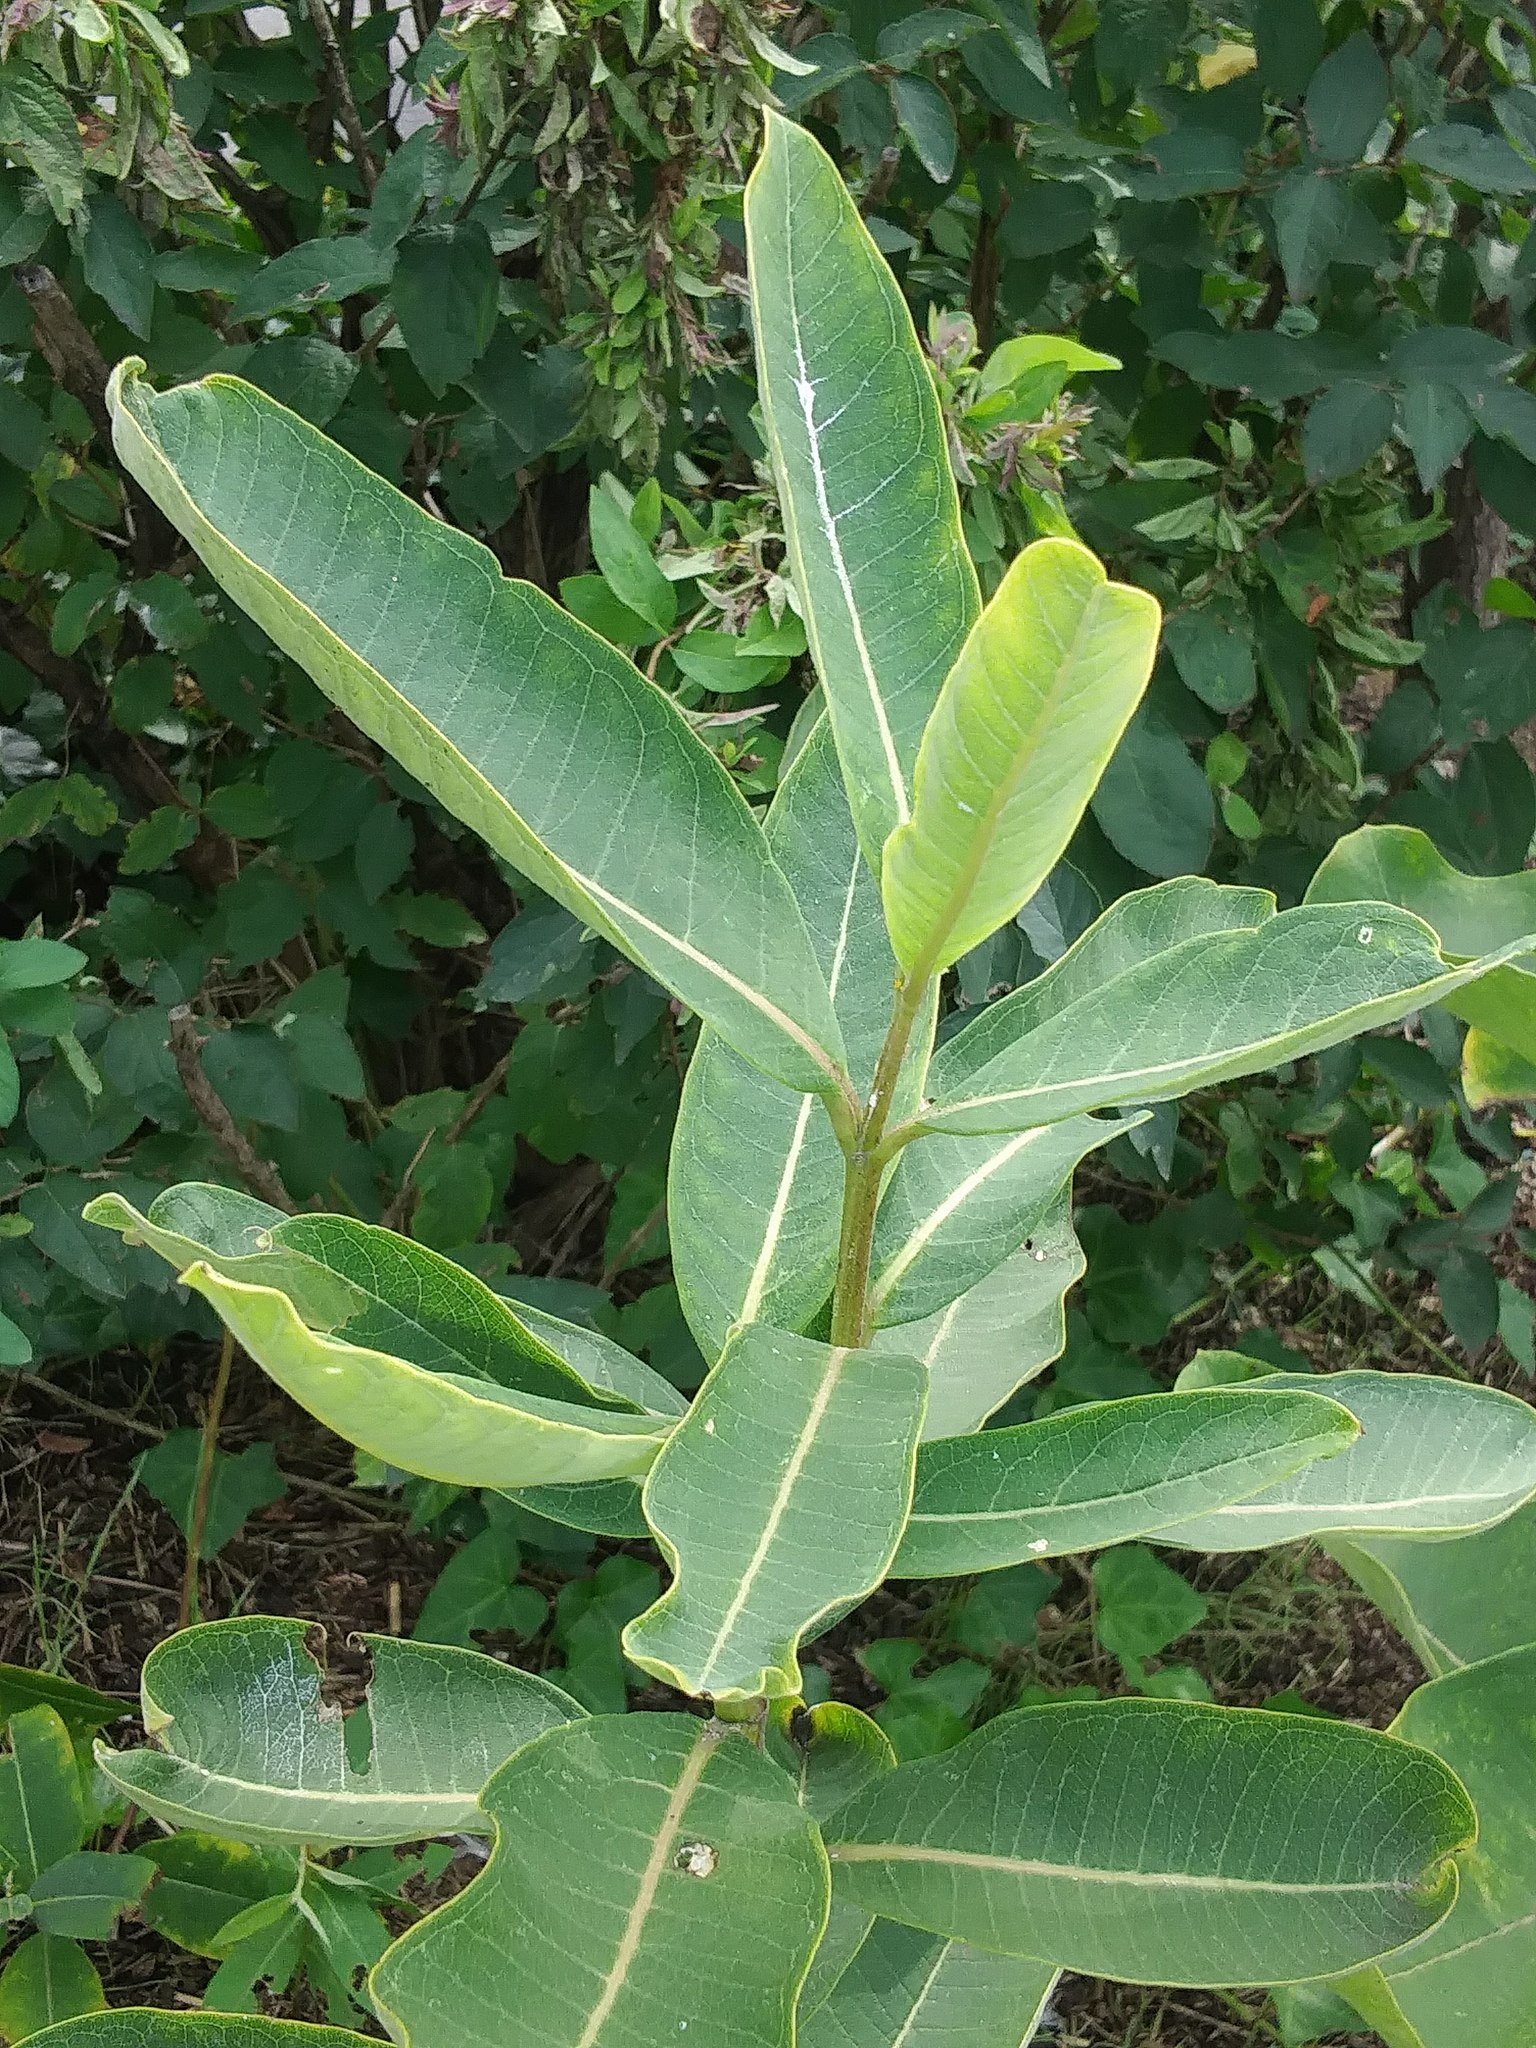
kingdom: Plantae
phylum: Tracheophyta
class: Magnoliopsida
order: Gentianales
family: Apocynaceae
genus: Asclepias
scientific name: Asclepias syriaca
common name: Common milkweed
